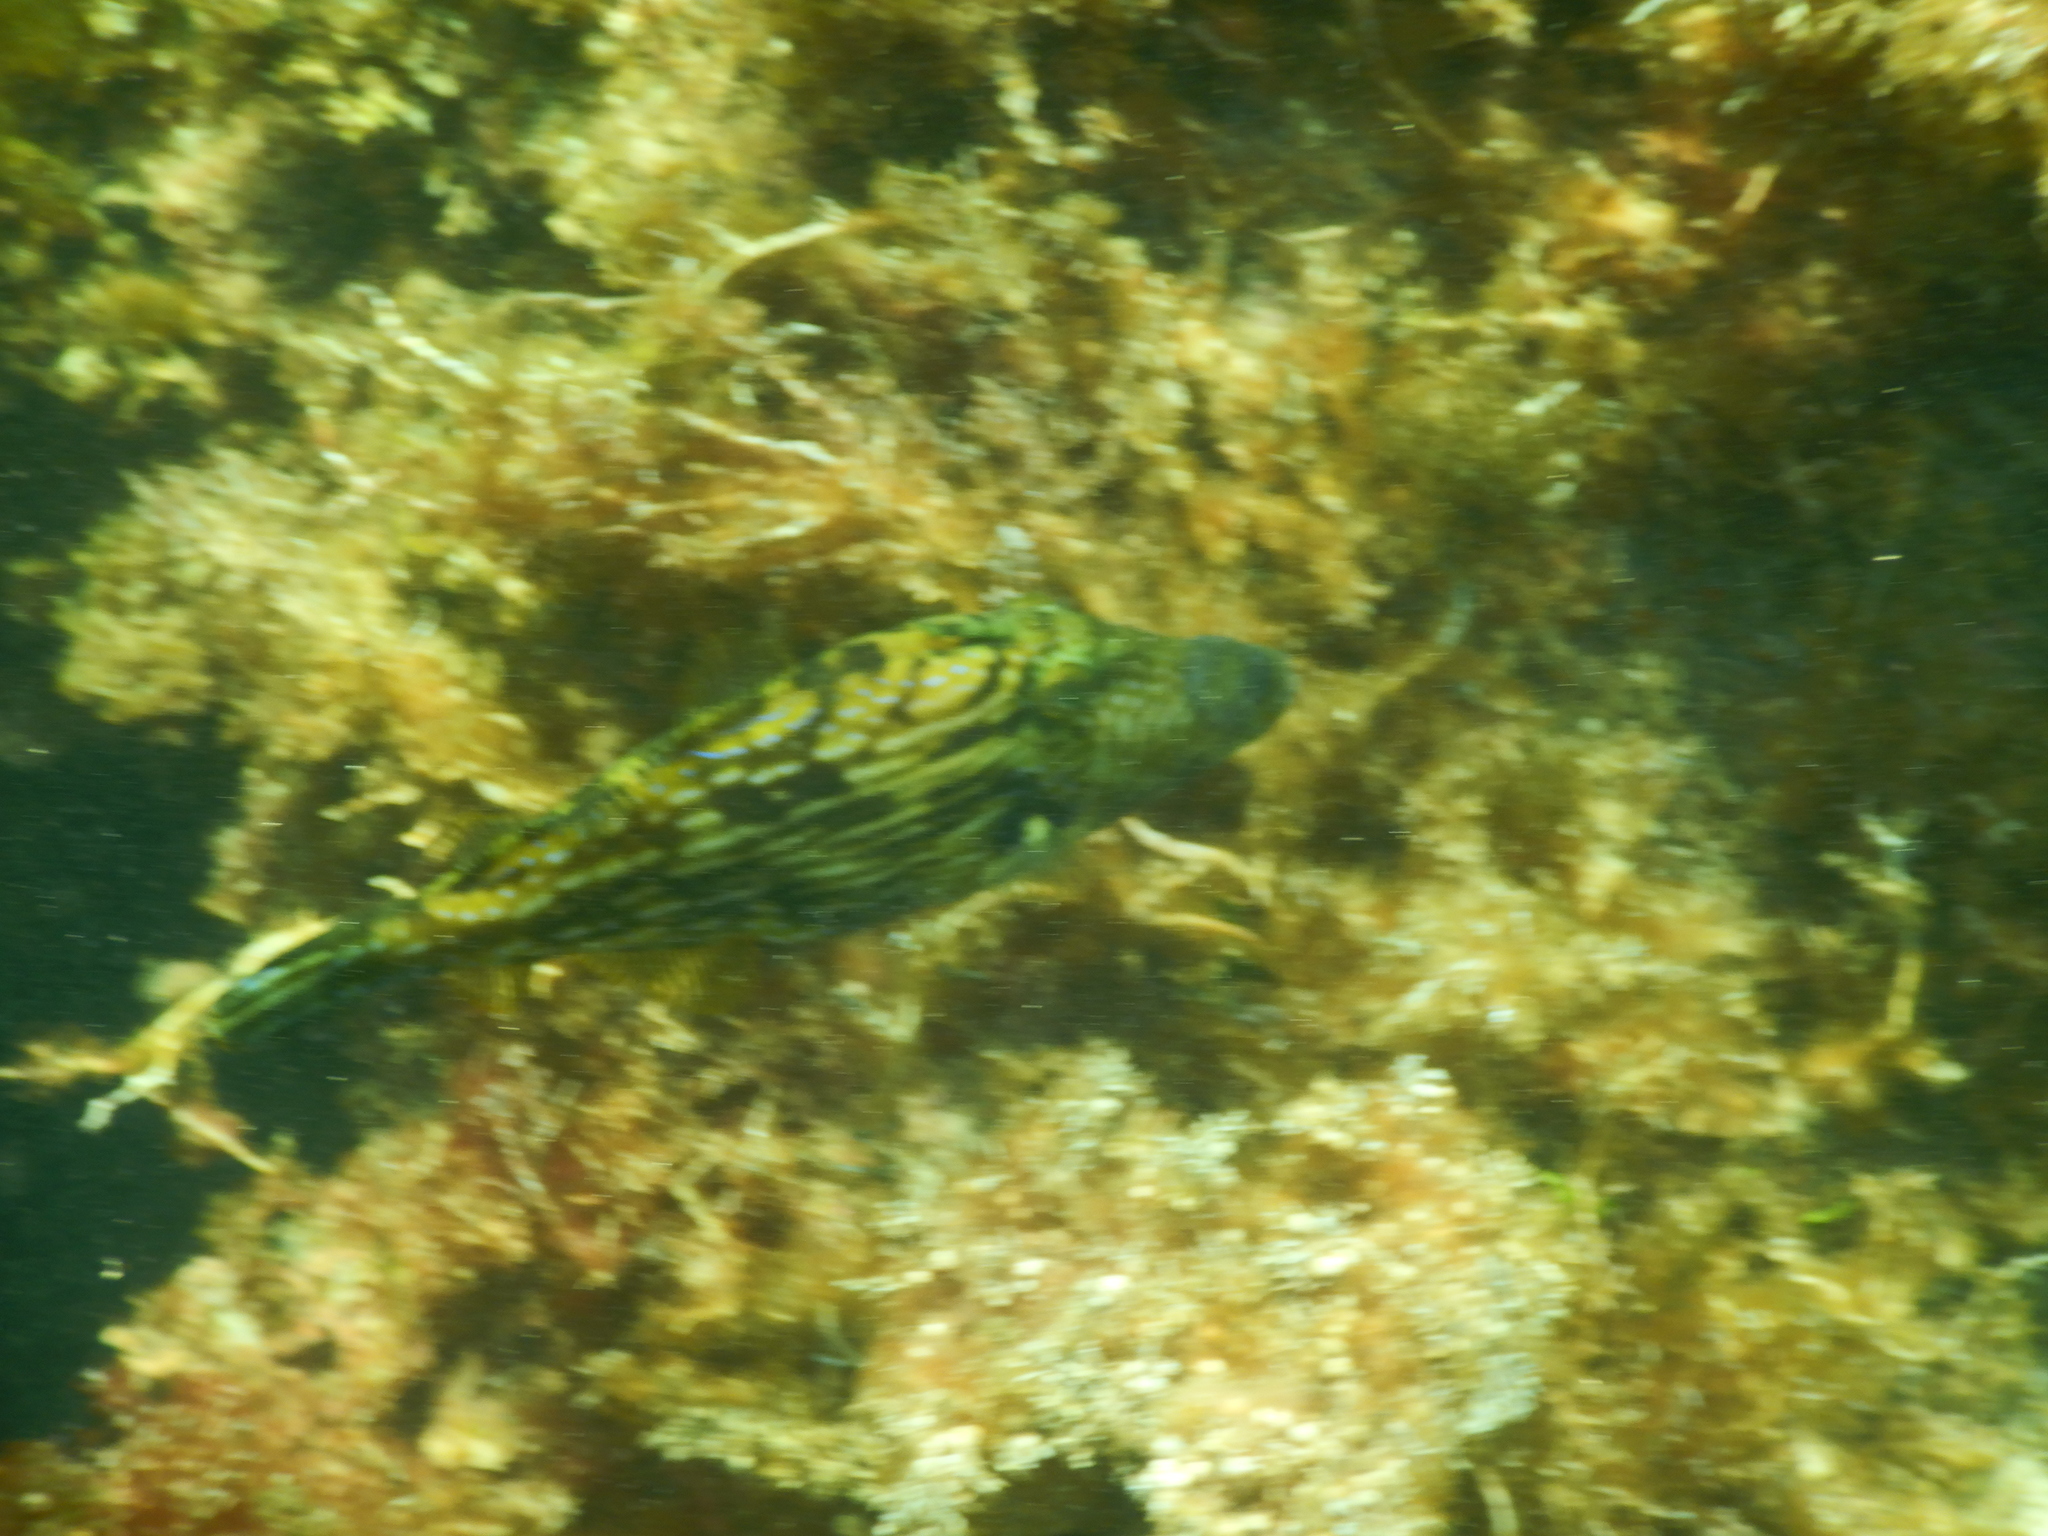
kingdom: Animalia
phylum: Chordata
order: Tetraodontiformes
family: Monacanthidae
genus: Meuschenia
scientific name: Meuschenia galii
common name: Bluelined leatherjacket
